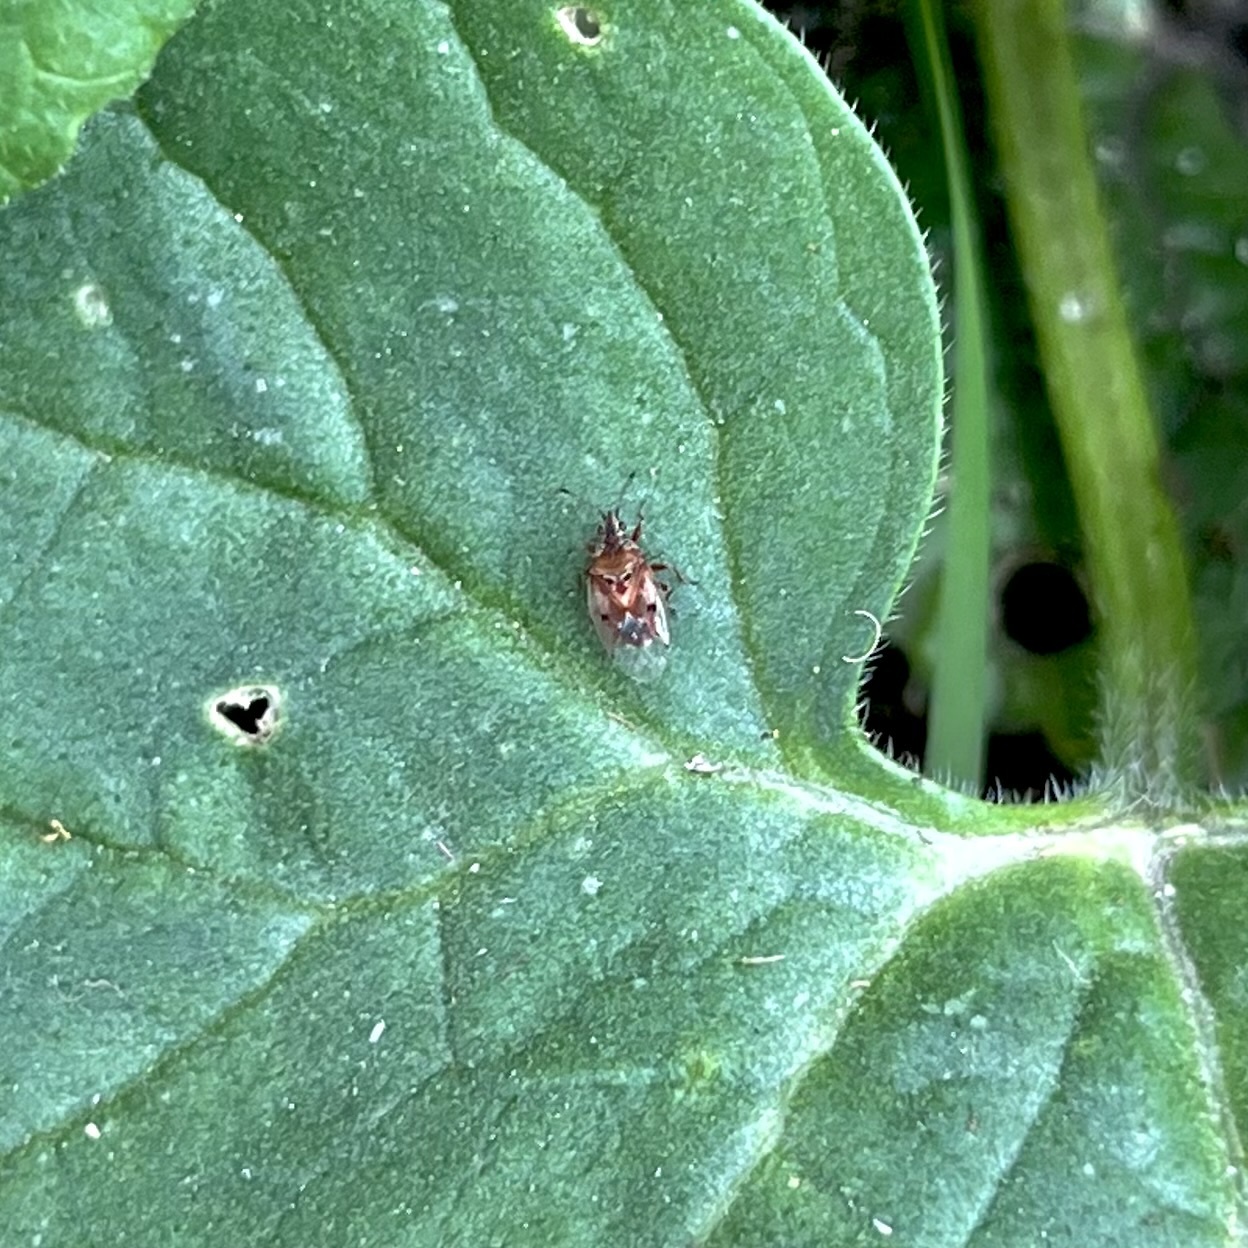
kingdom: Animalia
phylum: Arthropoda
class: Insecta
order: Hemiptera
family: Lygaeidae
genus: Kleidocerys
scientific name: Kleidocerys resedae
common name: Birch catkin bug
